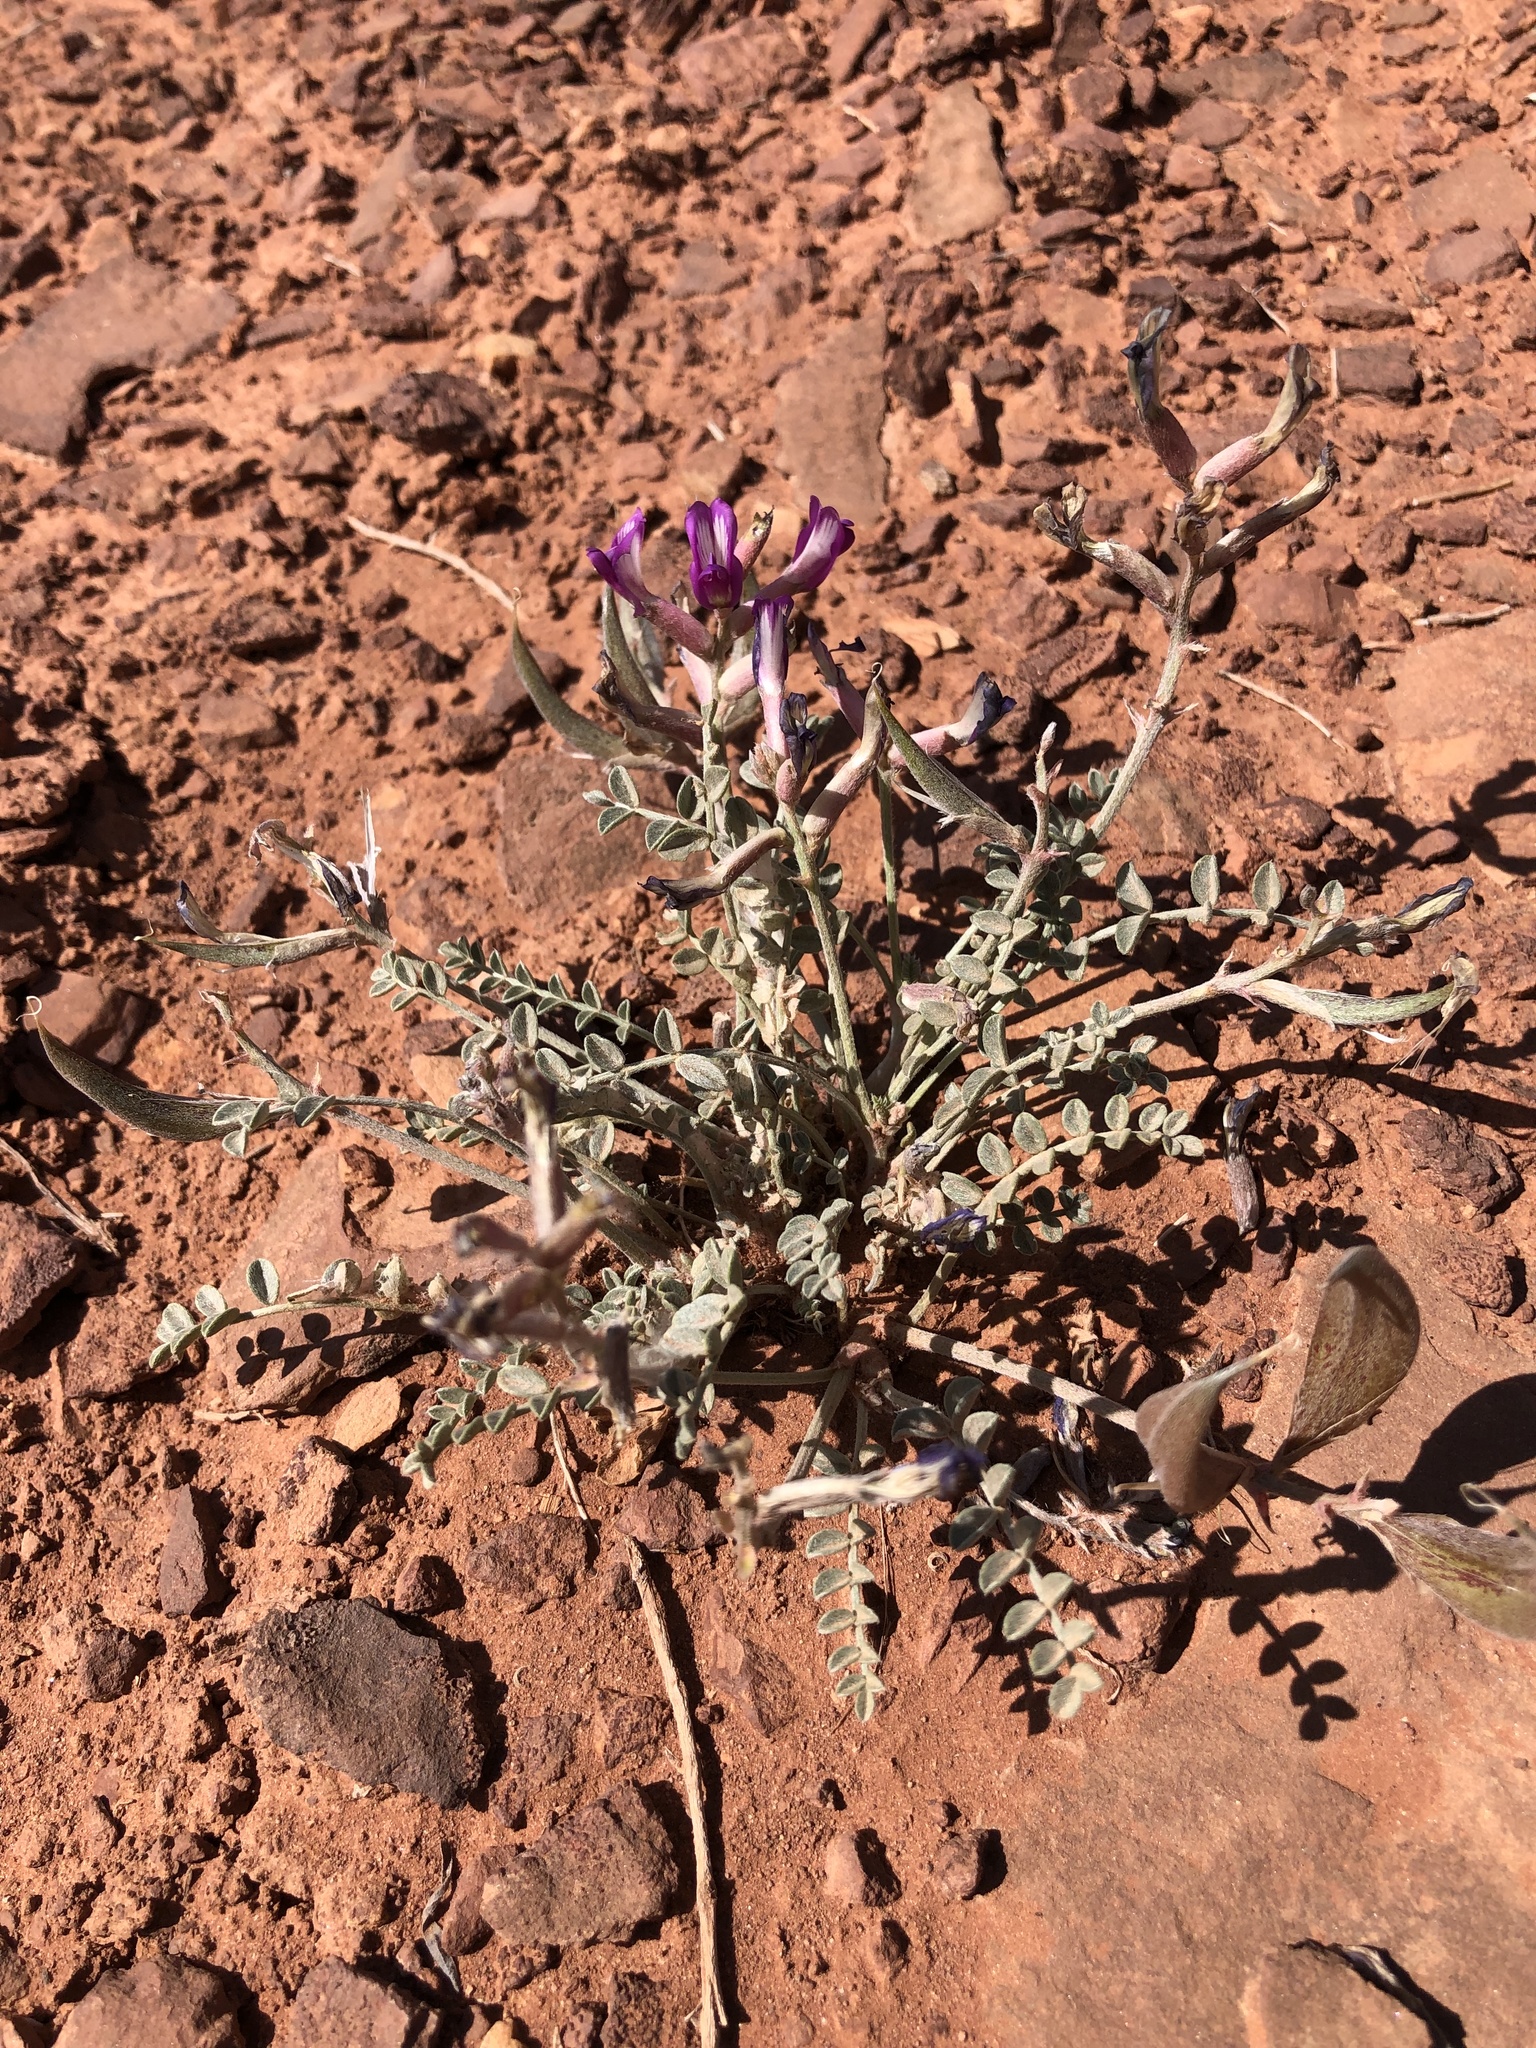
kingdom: Plantae
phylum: Tracheophyta
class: Magnoliopsida
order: Fabales
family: Fabaceae
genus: Astragalus
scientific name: Astragalus amphioxys
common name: Crescent milk-vetch
